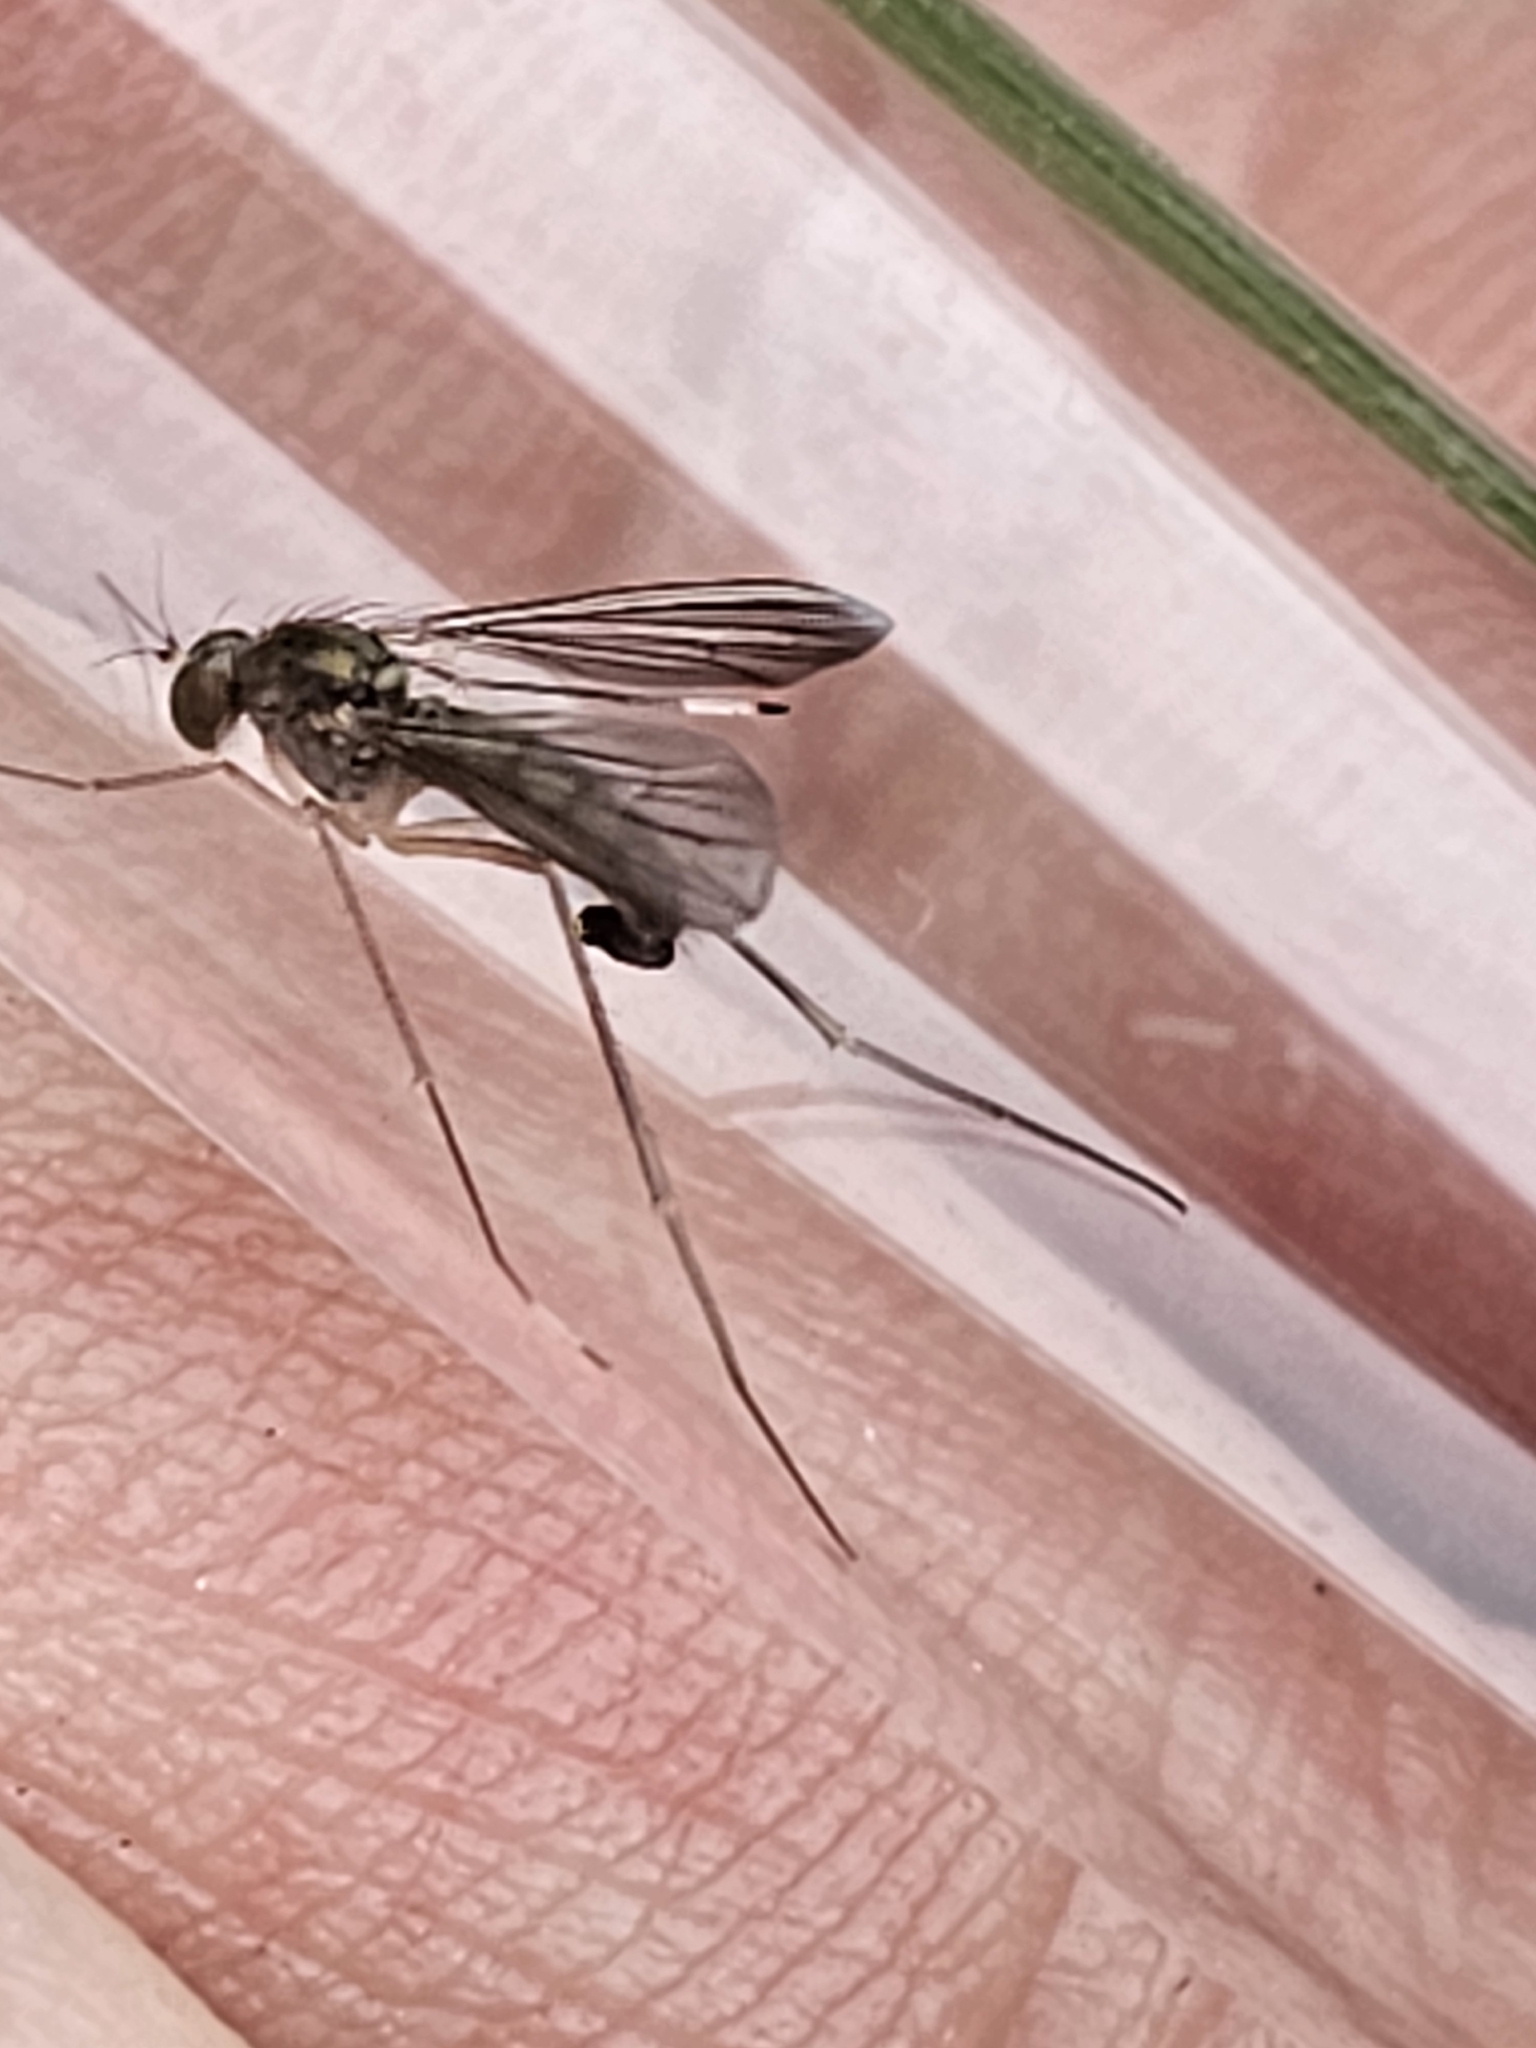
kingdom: Animalia
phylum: Arthropoda
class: Insecta
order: Diptera
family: Dolichopodidae
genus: Sciapus
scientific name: Sciapus platypterus
